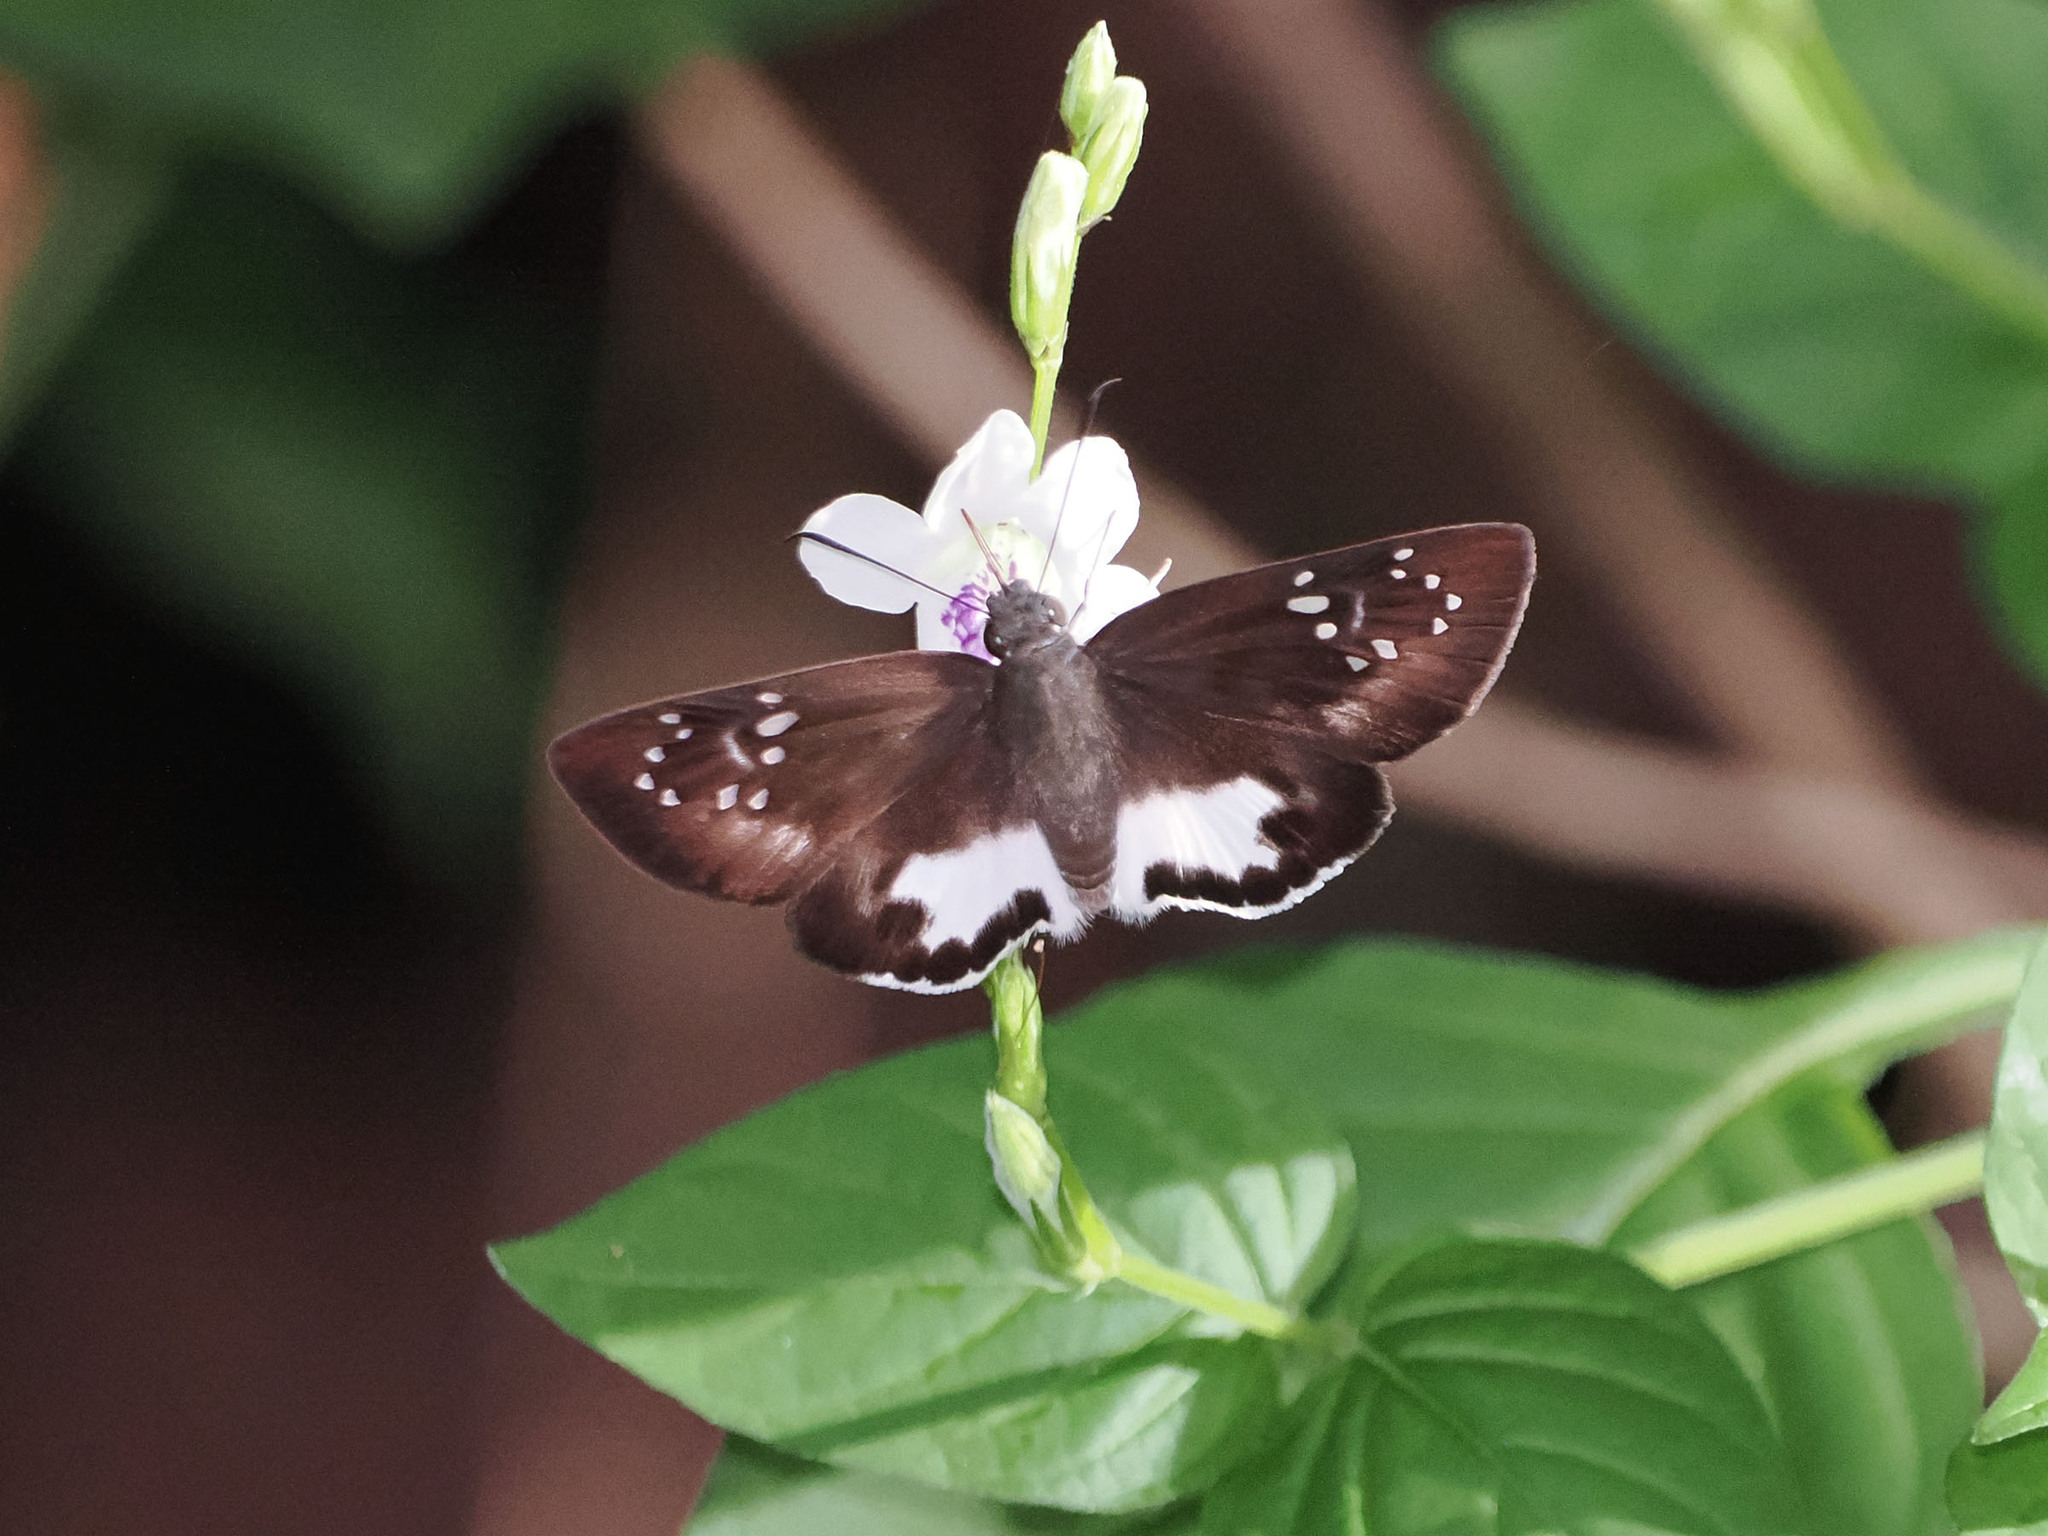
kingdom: Animalia
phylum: Arthropoda
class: Insecta
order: Lepidoptera
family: Hesperiidae
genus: Tagiades
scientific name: Tagiades trebellius
